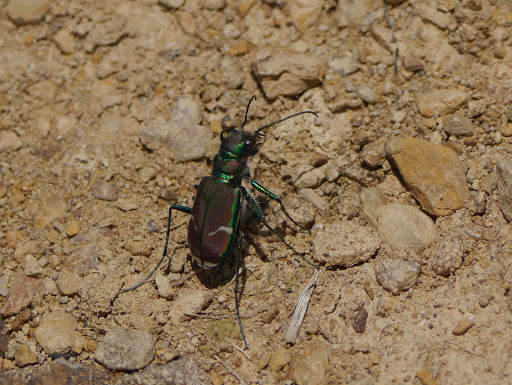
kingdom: Animalia
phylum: Arthropoda
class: Insecta
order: Coleoptera
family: Carabidae
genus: Cicindela
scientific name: Cicindela limbalis
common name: Common claybank tiger beetle
